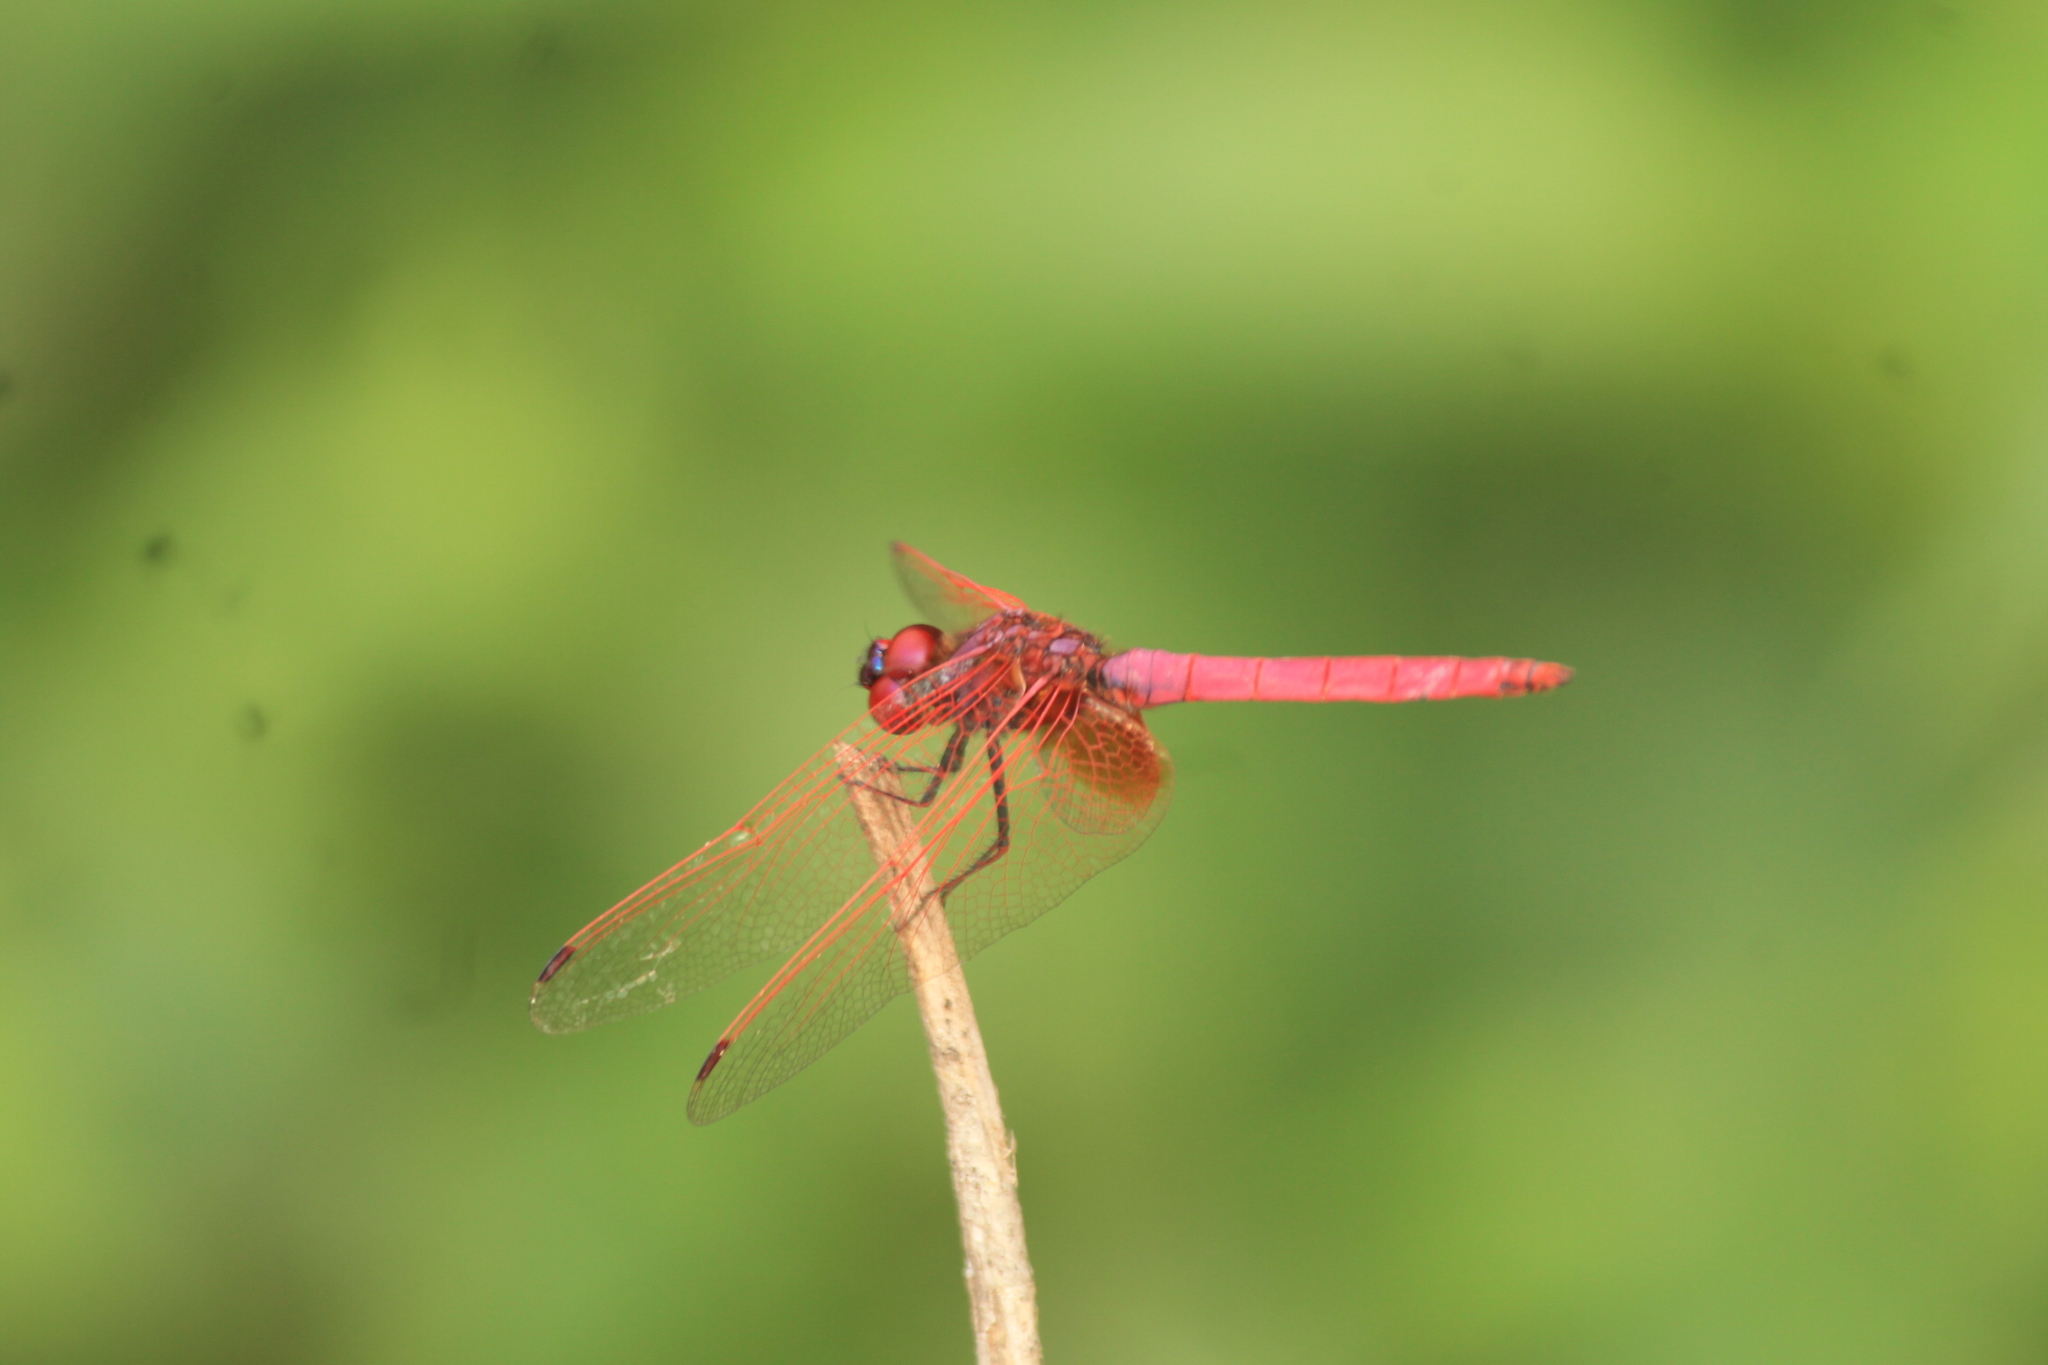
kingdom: Animalia
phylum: Arthropoda
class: Insecta
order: Odonata
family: Libellulidae
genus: Trithemis
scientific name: Trithemis aurora
